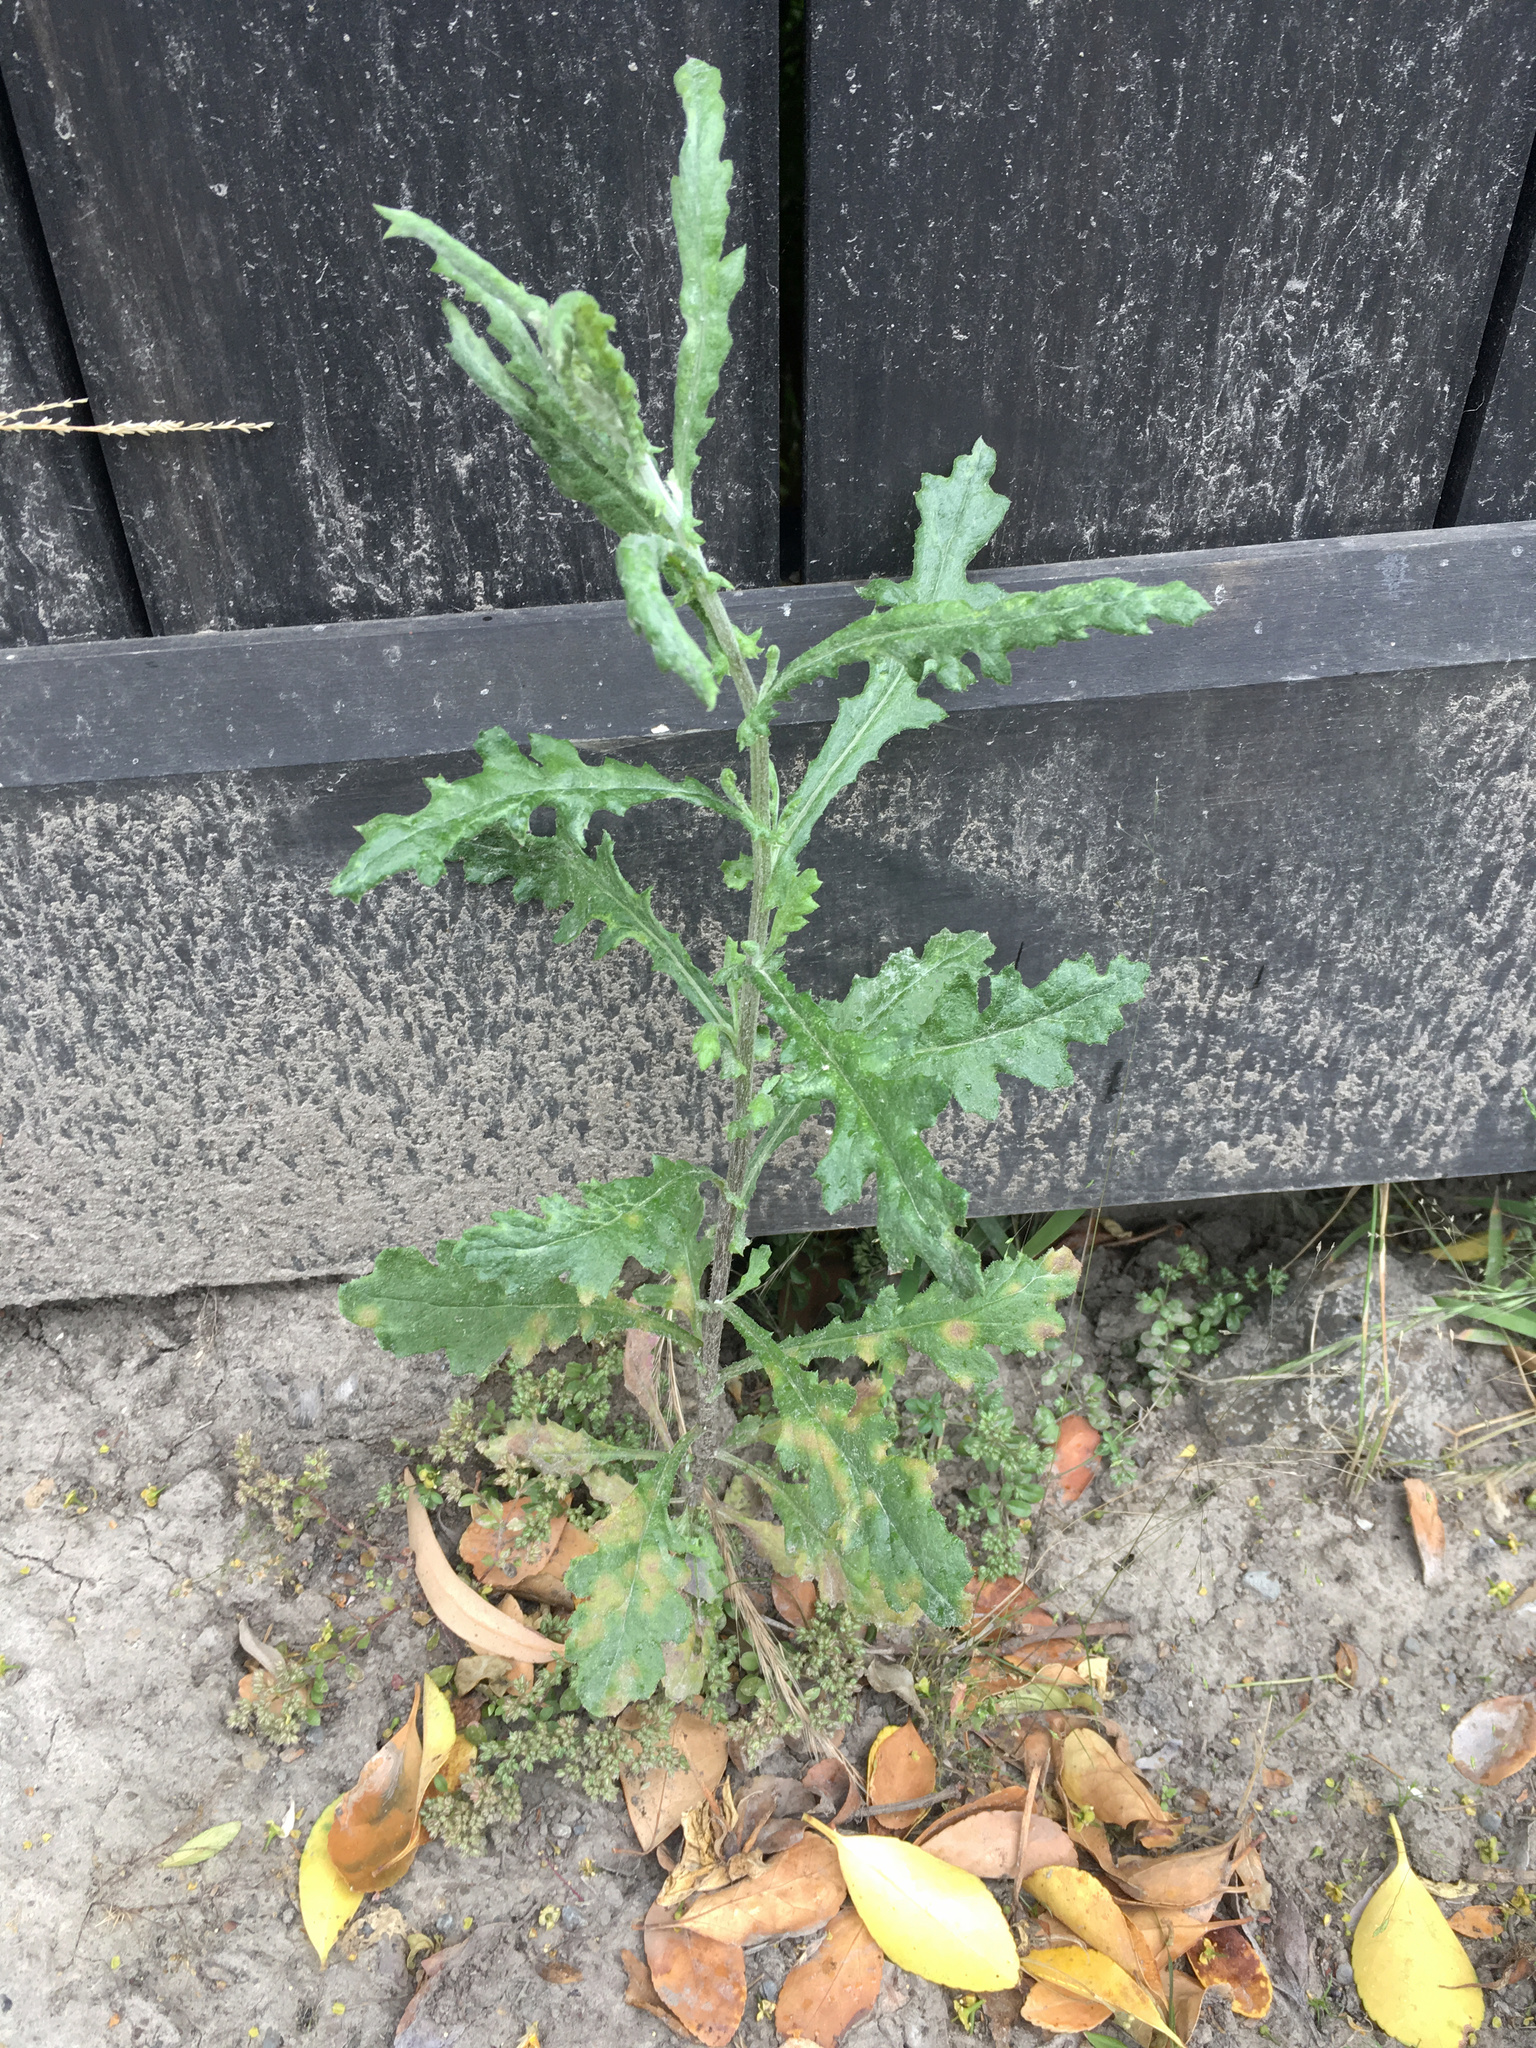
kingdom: Plantae
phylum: Tracheophyta
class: Magnoliopsida
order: Asterales
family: Asteraceae
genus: Senecio
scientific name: Senecio glomeratus
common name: Cutleaf burnweed
